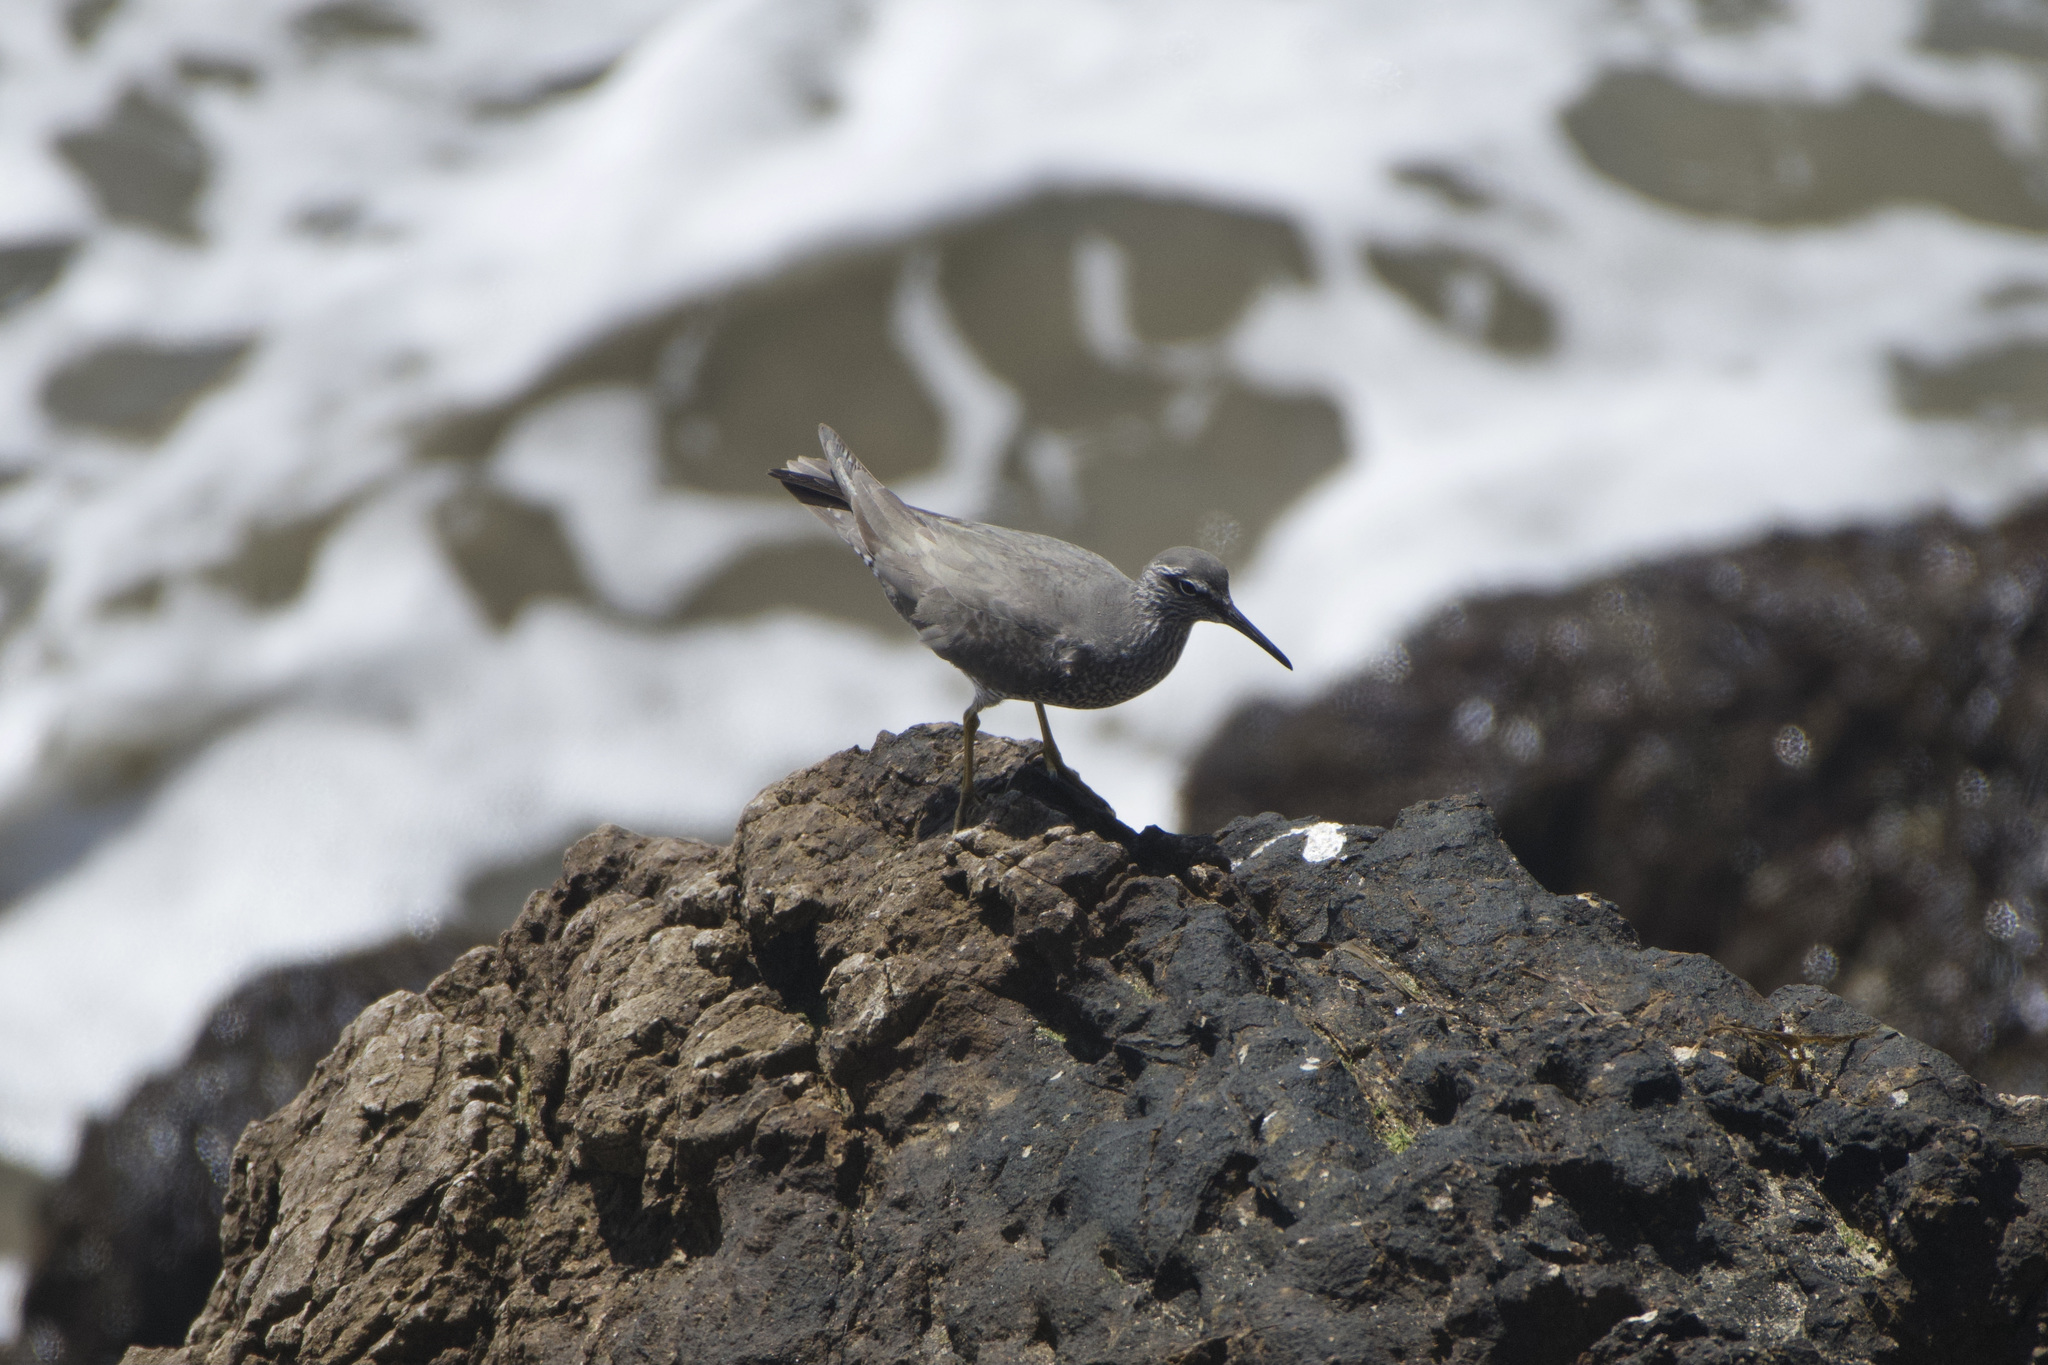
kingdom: Animalia
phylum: Chordata
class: Aves
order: Charadriiformes
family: Scolopacidae
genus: Tringa
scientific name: Tringa incana
